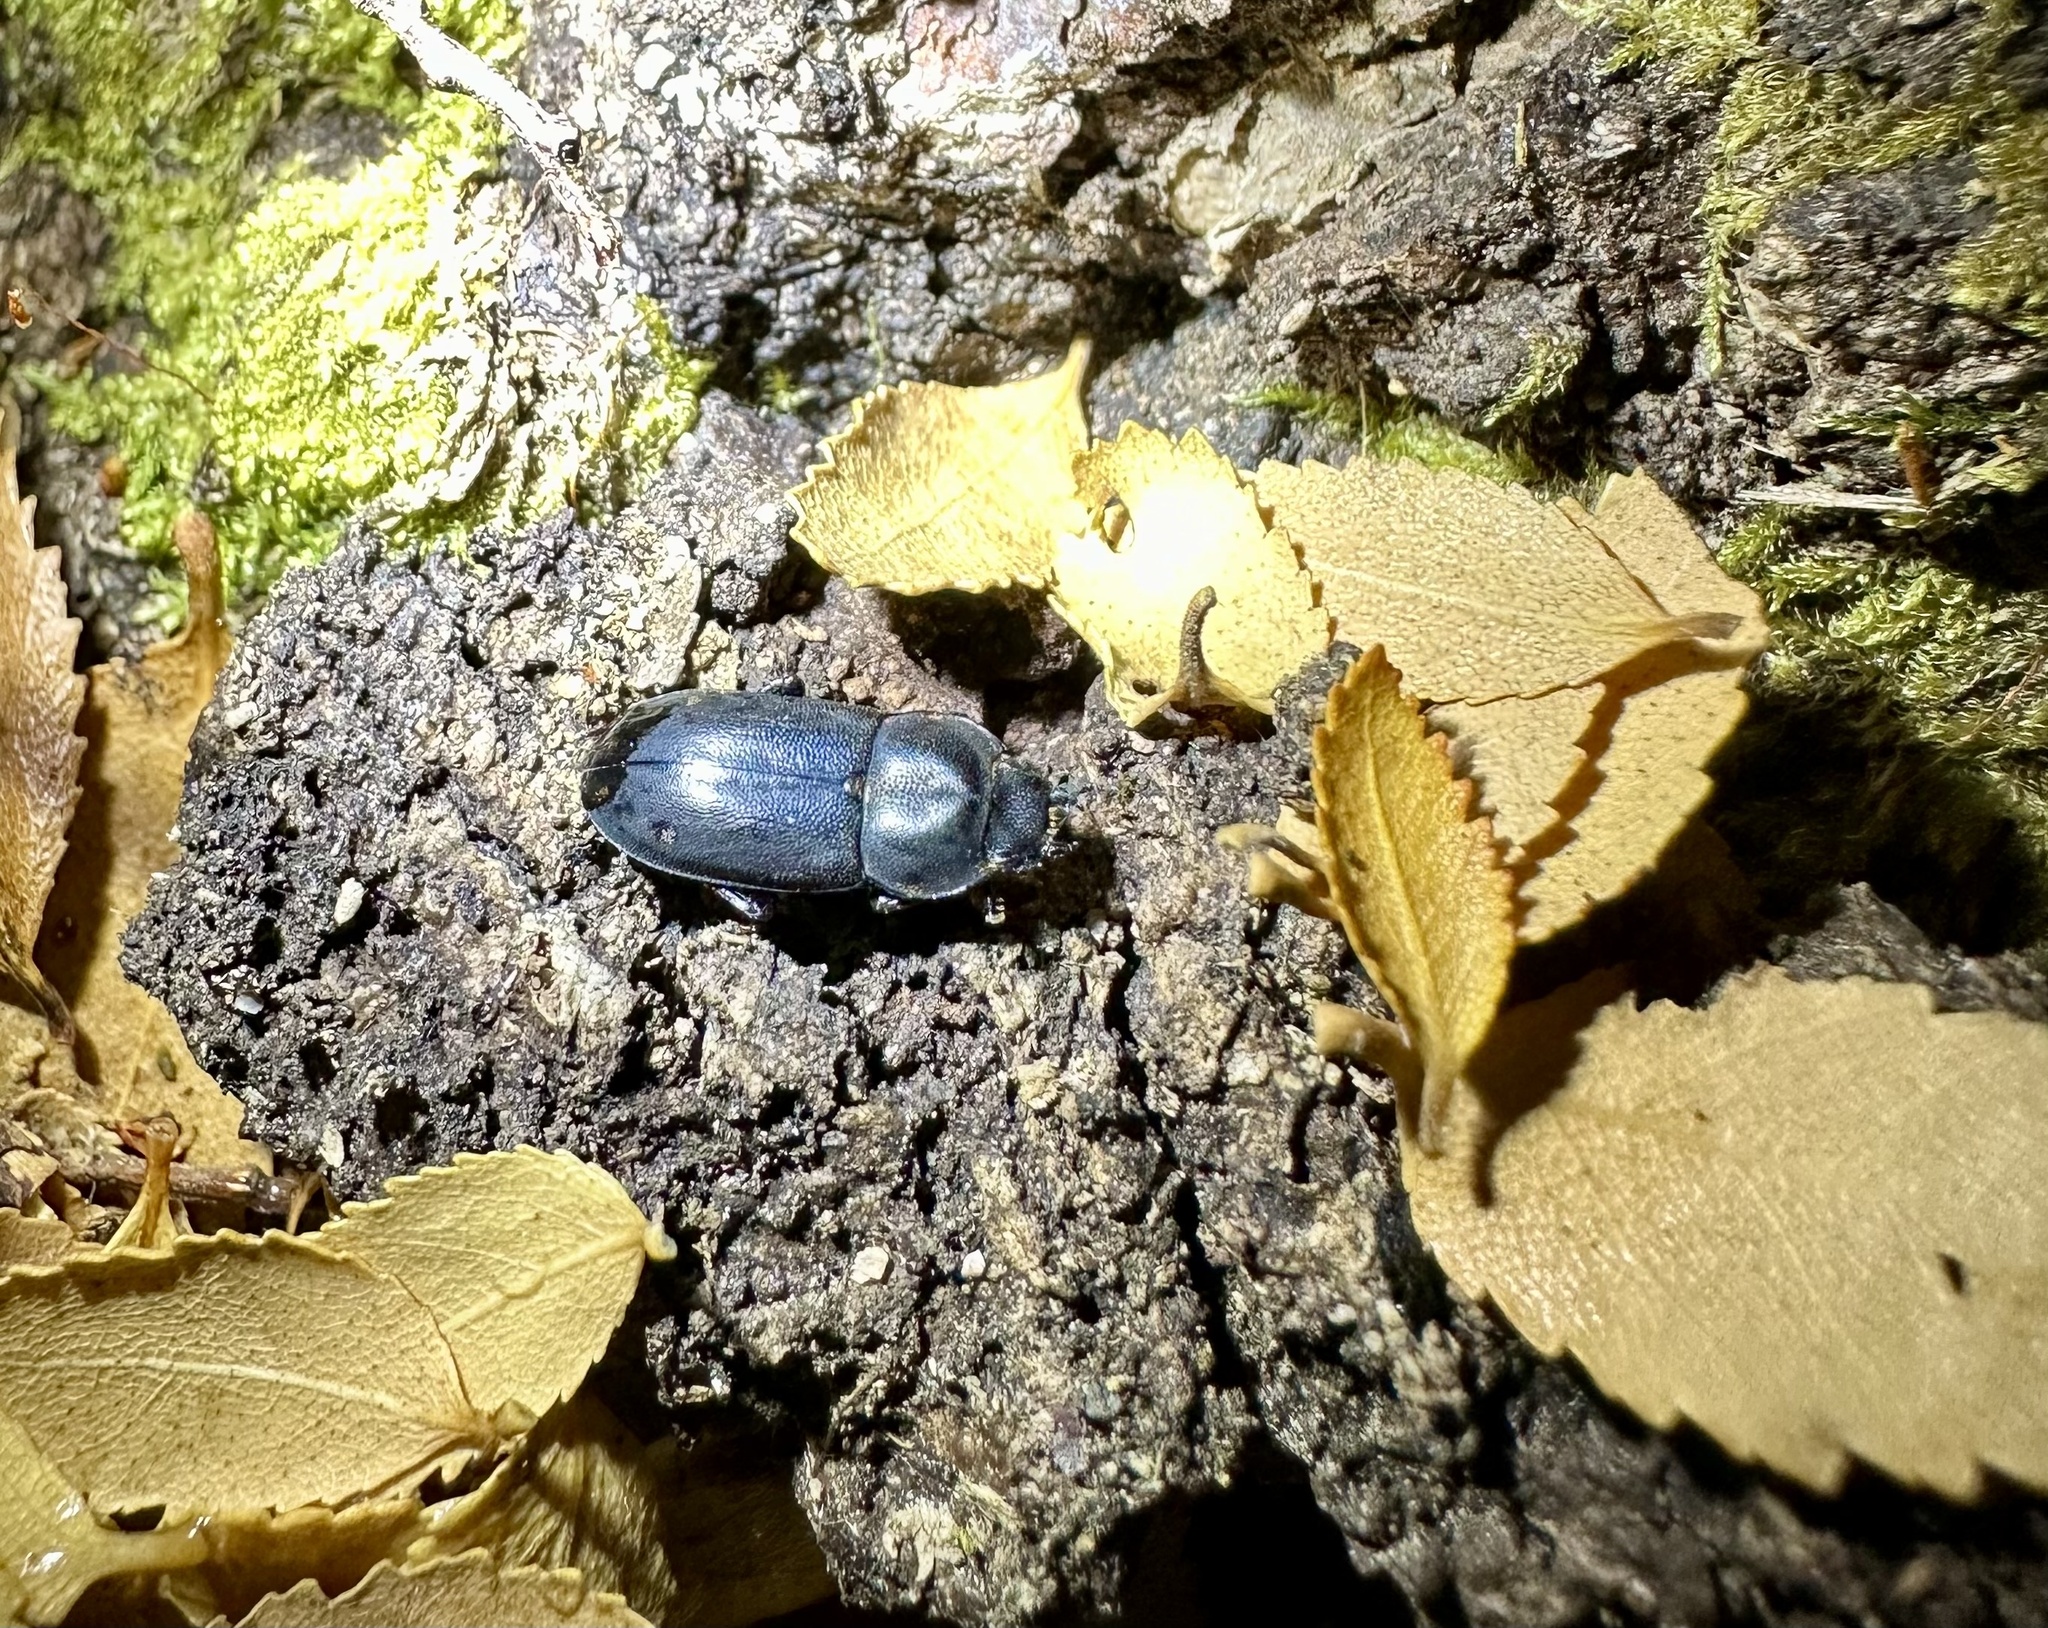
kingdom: Animalia
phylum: Arthropoda
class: Insecta
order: Coleoptera
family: Lucanidae
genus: Chileistomus
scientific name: Chileistomus cucullatus
